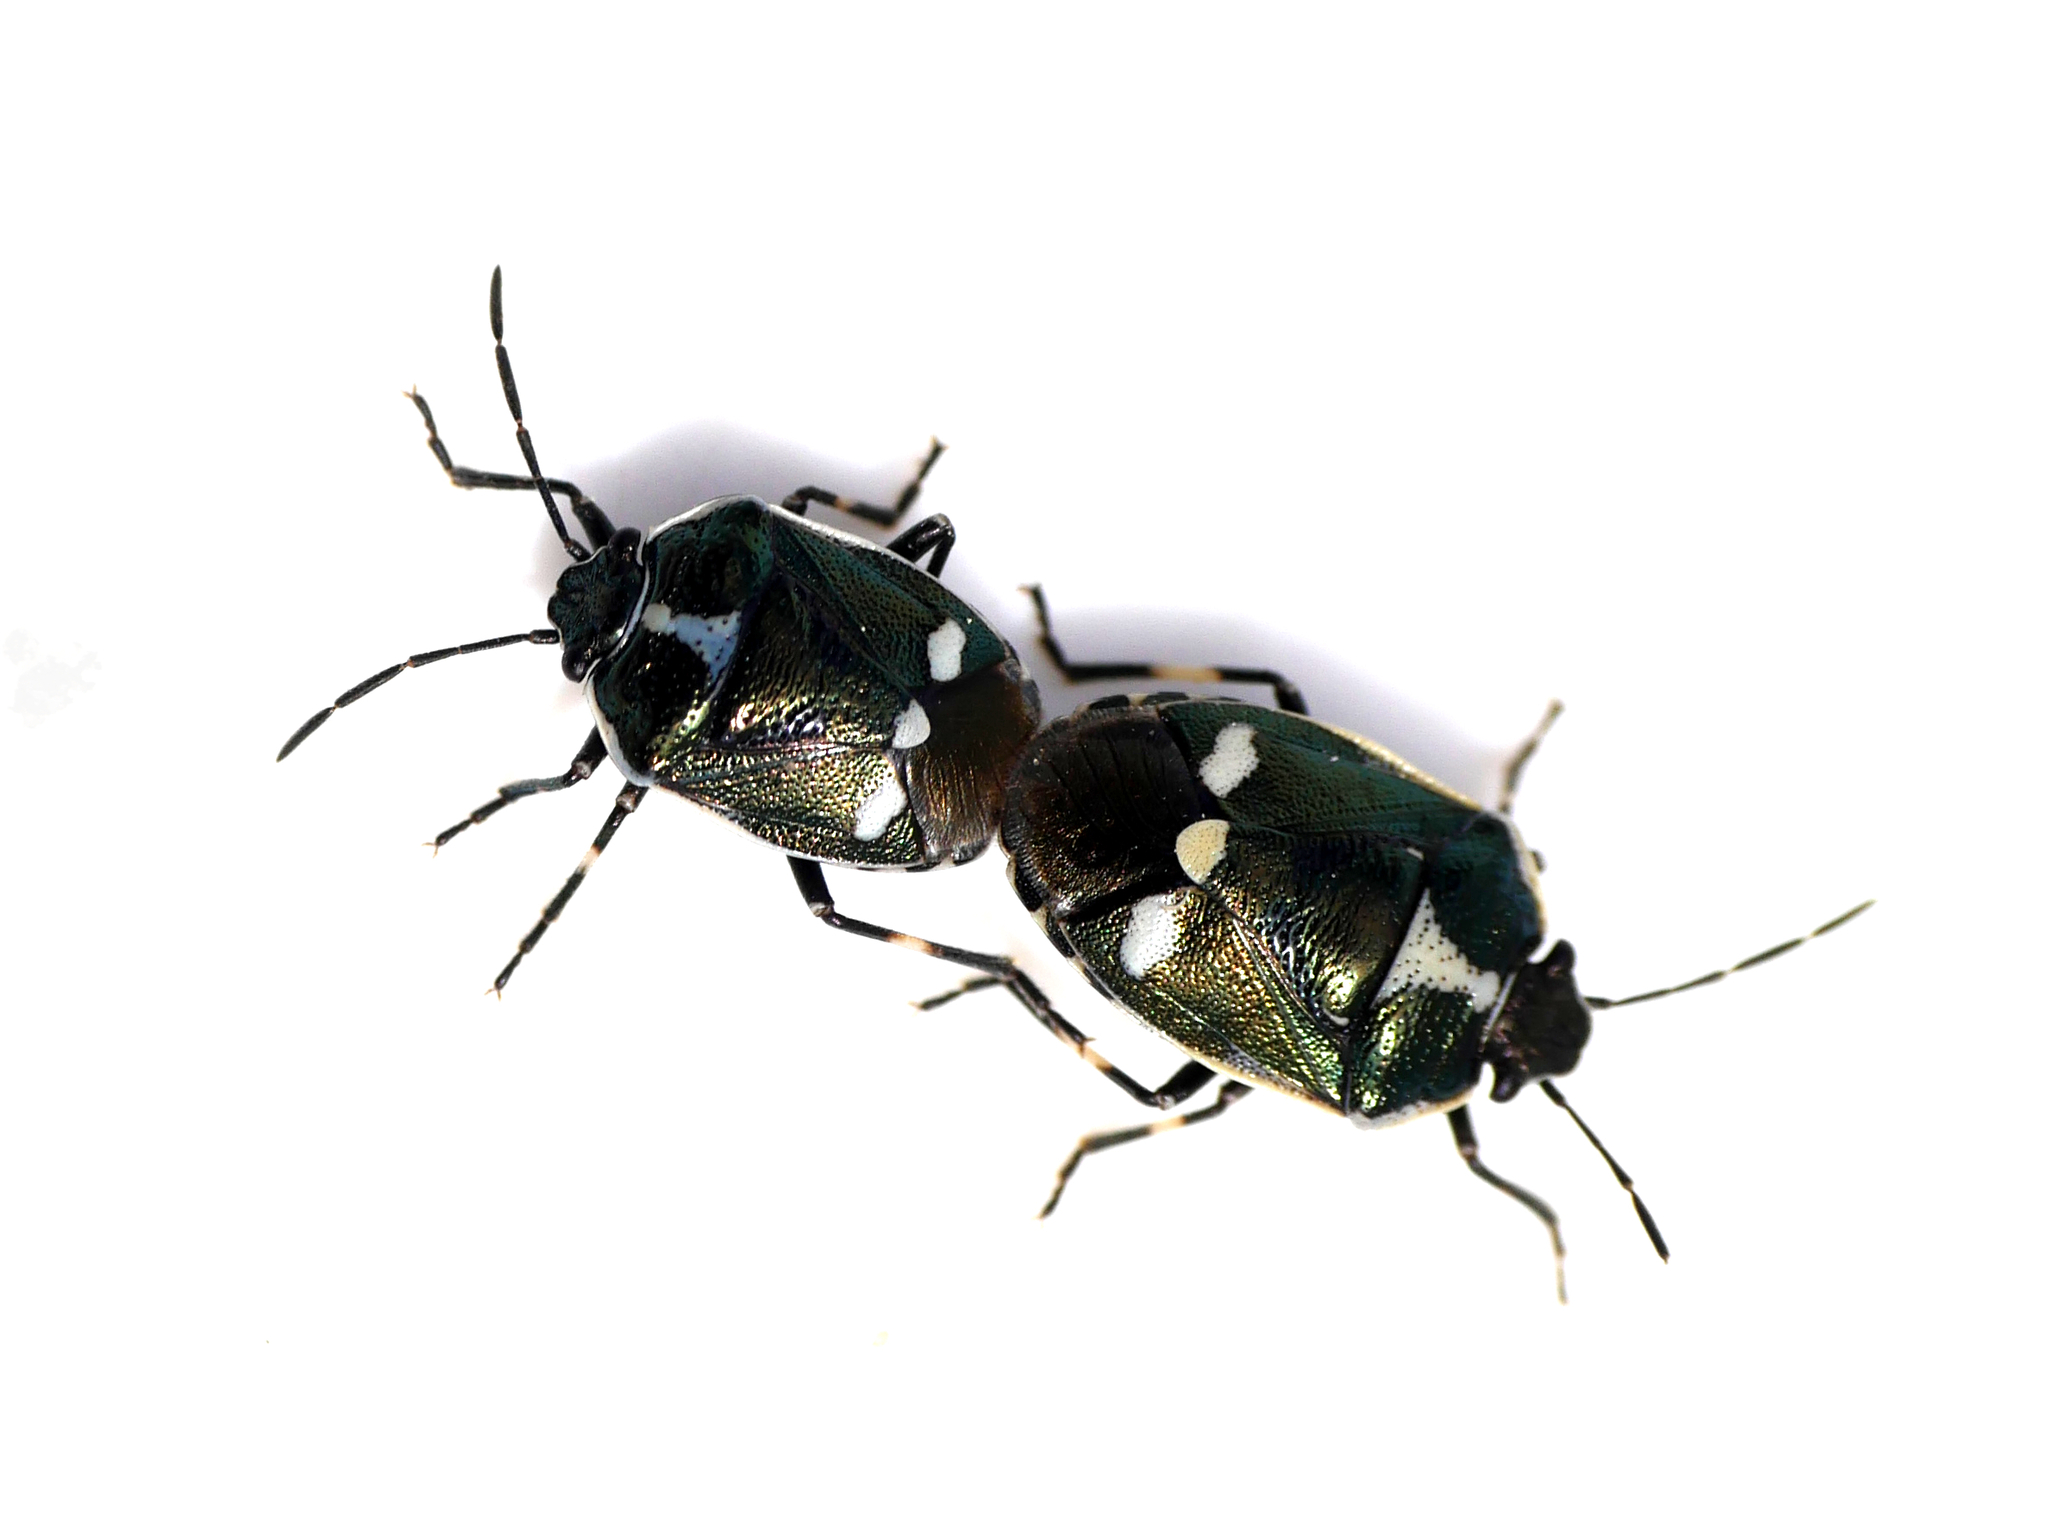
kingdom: Animalia
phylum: Arthropoda
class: Insecta
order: Hemiptera
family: Pentatomidae
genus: Eurydema
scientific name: Eurydema oleracea
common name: Cabbage bug
